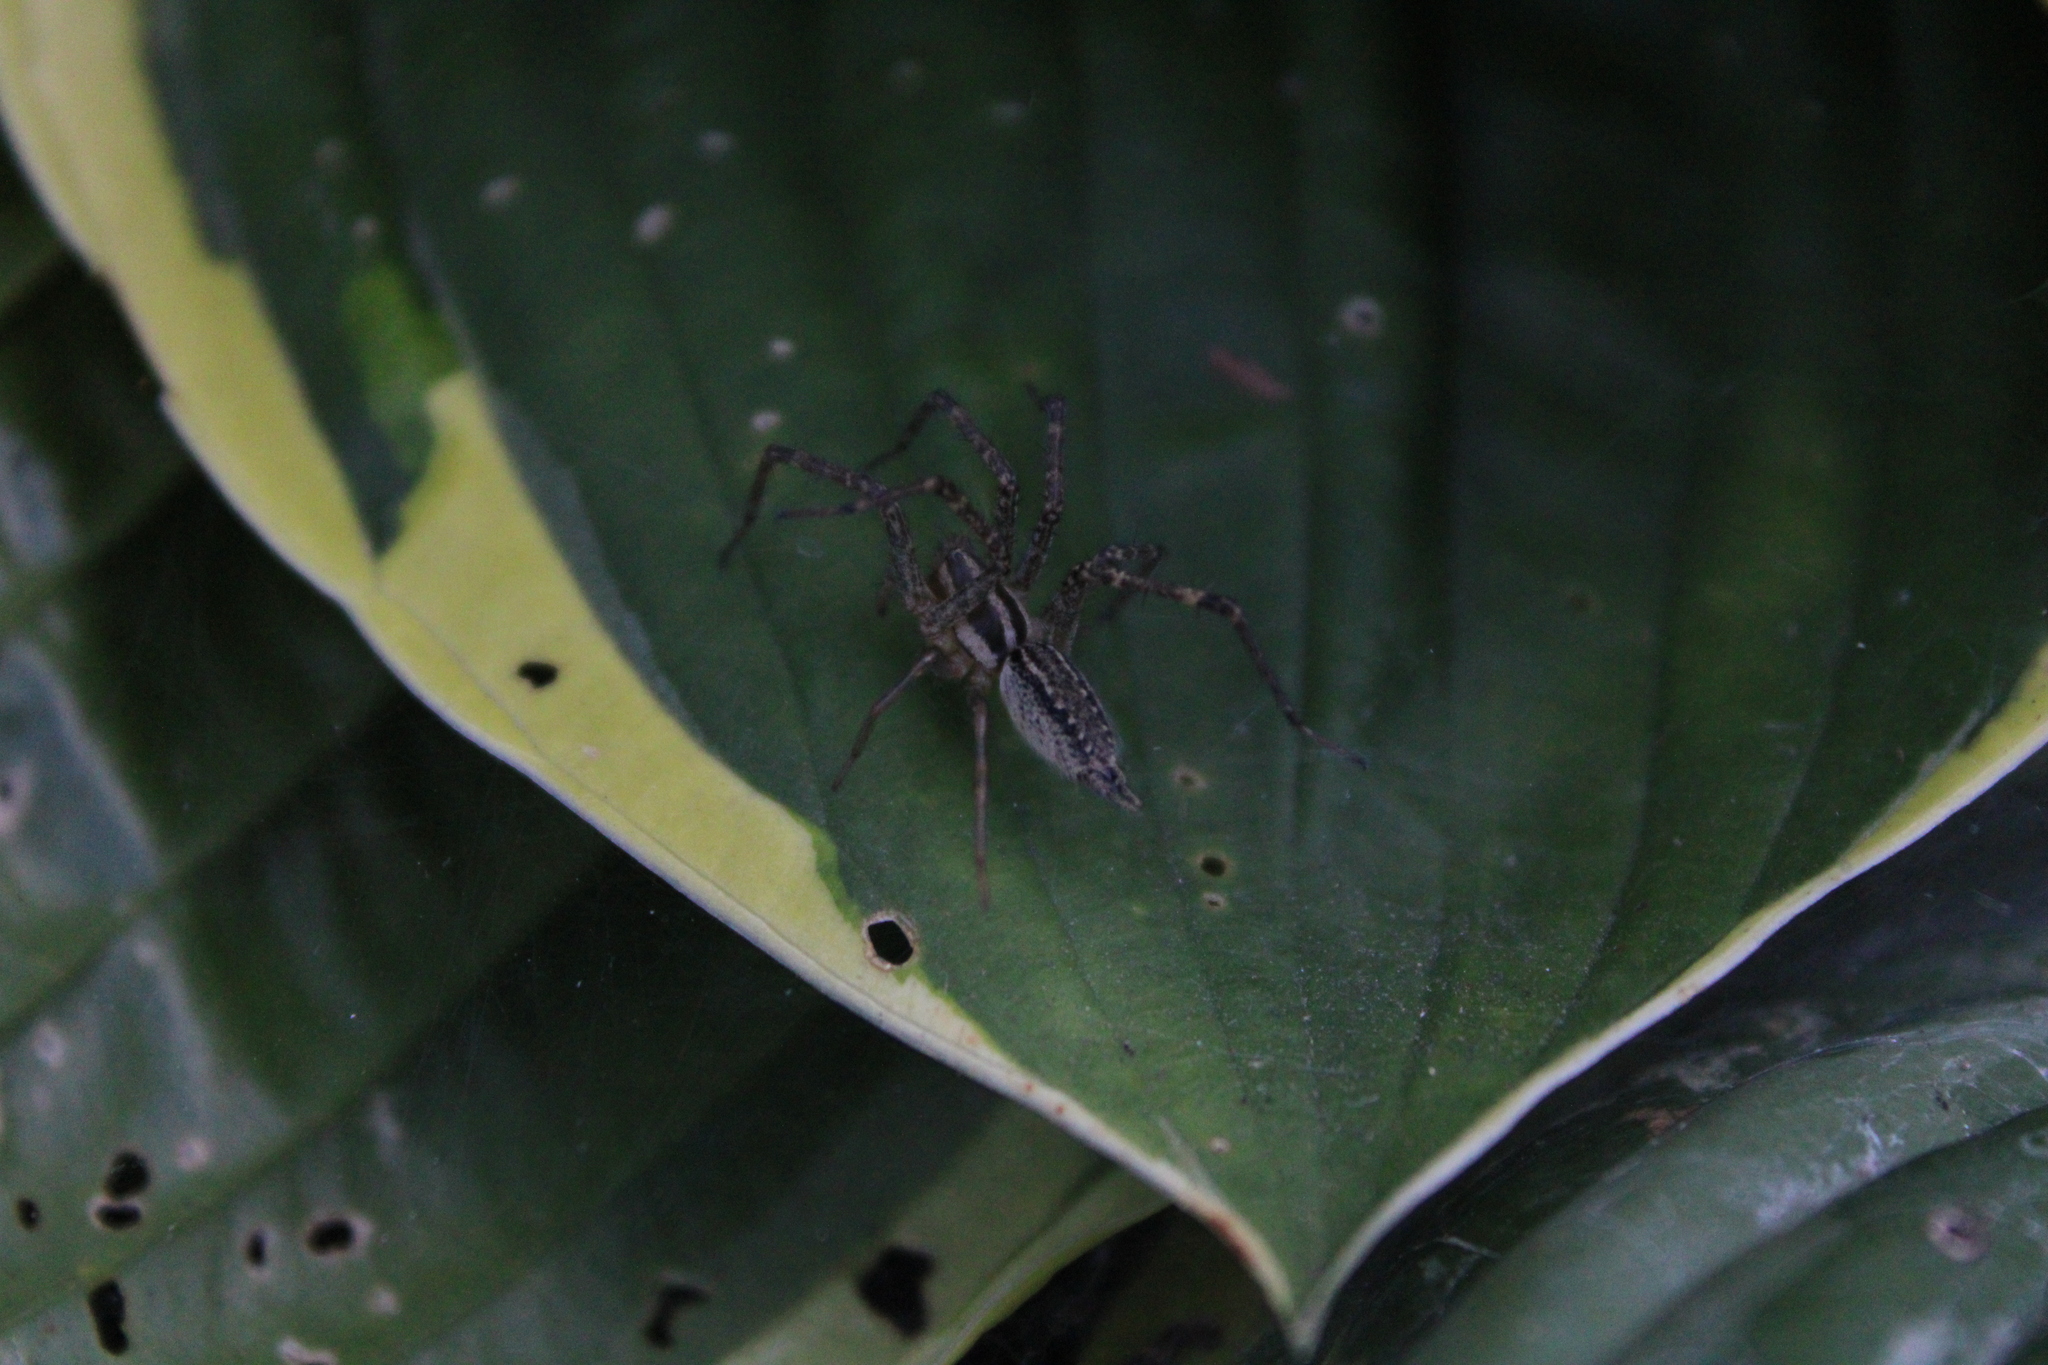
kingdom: Animalia
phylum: Arthropoda
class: Arachnida
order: Araneae
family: Agelenidae
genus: Agelenopsis
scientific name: Agelenopsis
